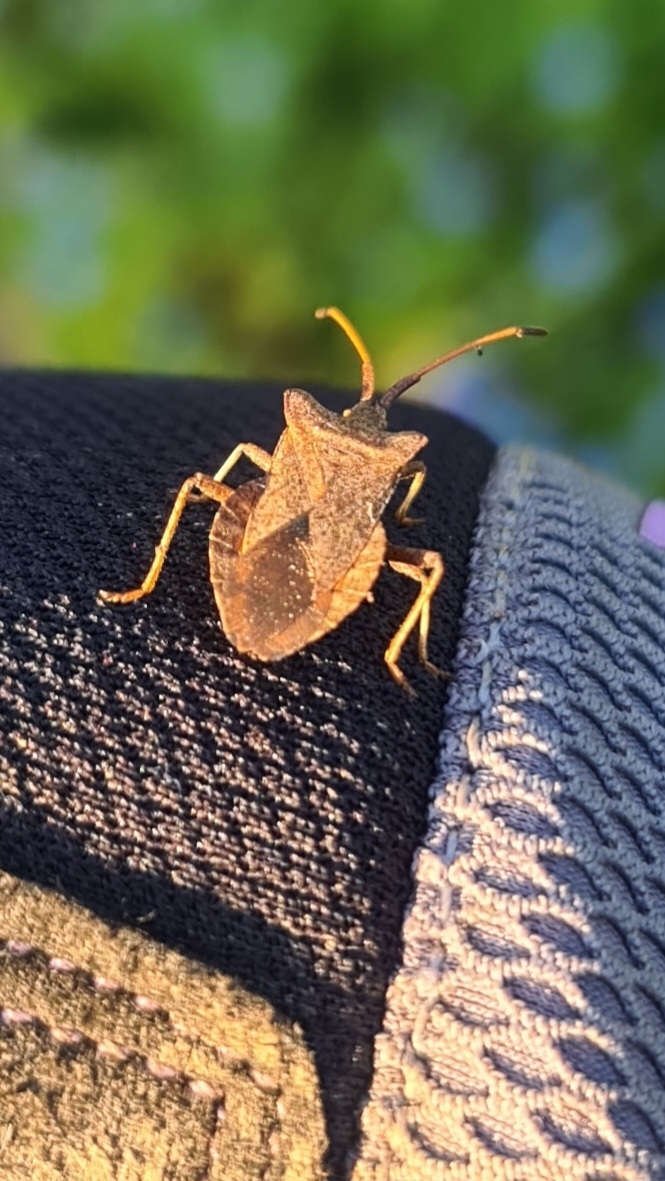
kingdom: Animalia
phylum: Arthropoda
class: Insecta
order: Hemiptera
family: Coreidae
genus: Coreus
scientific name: Coreus marginatus
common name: Dock bug
